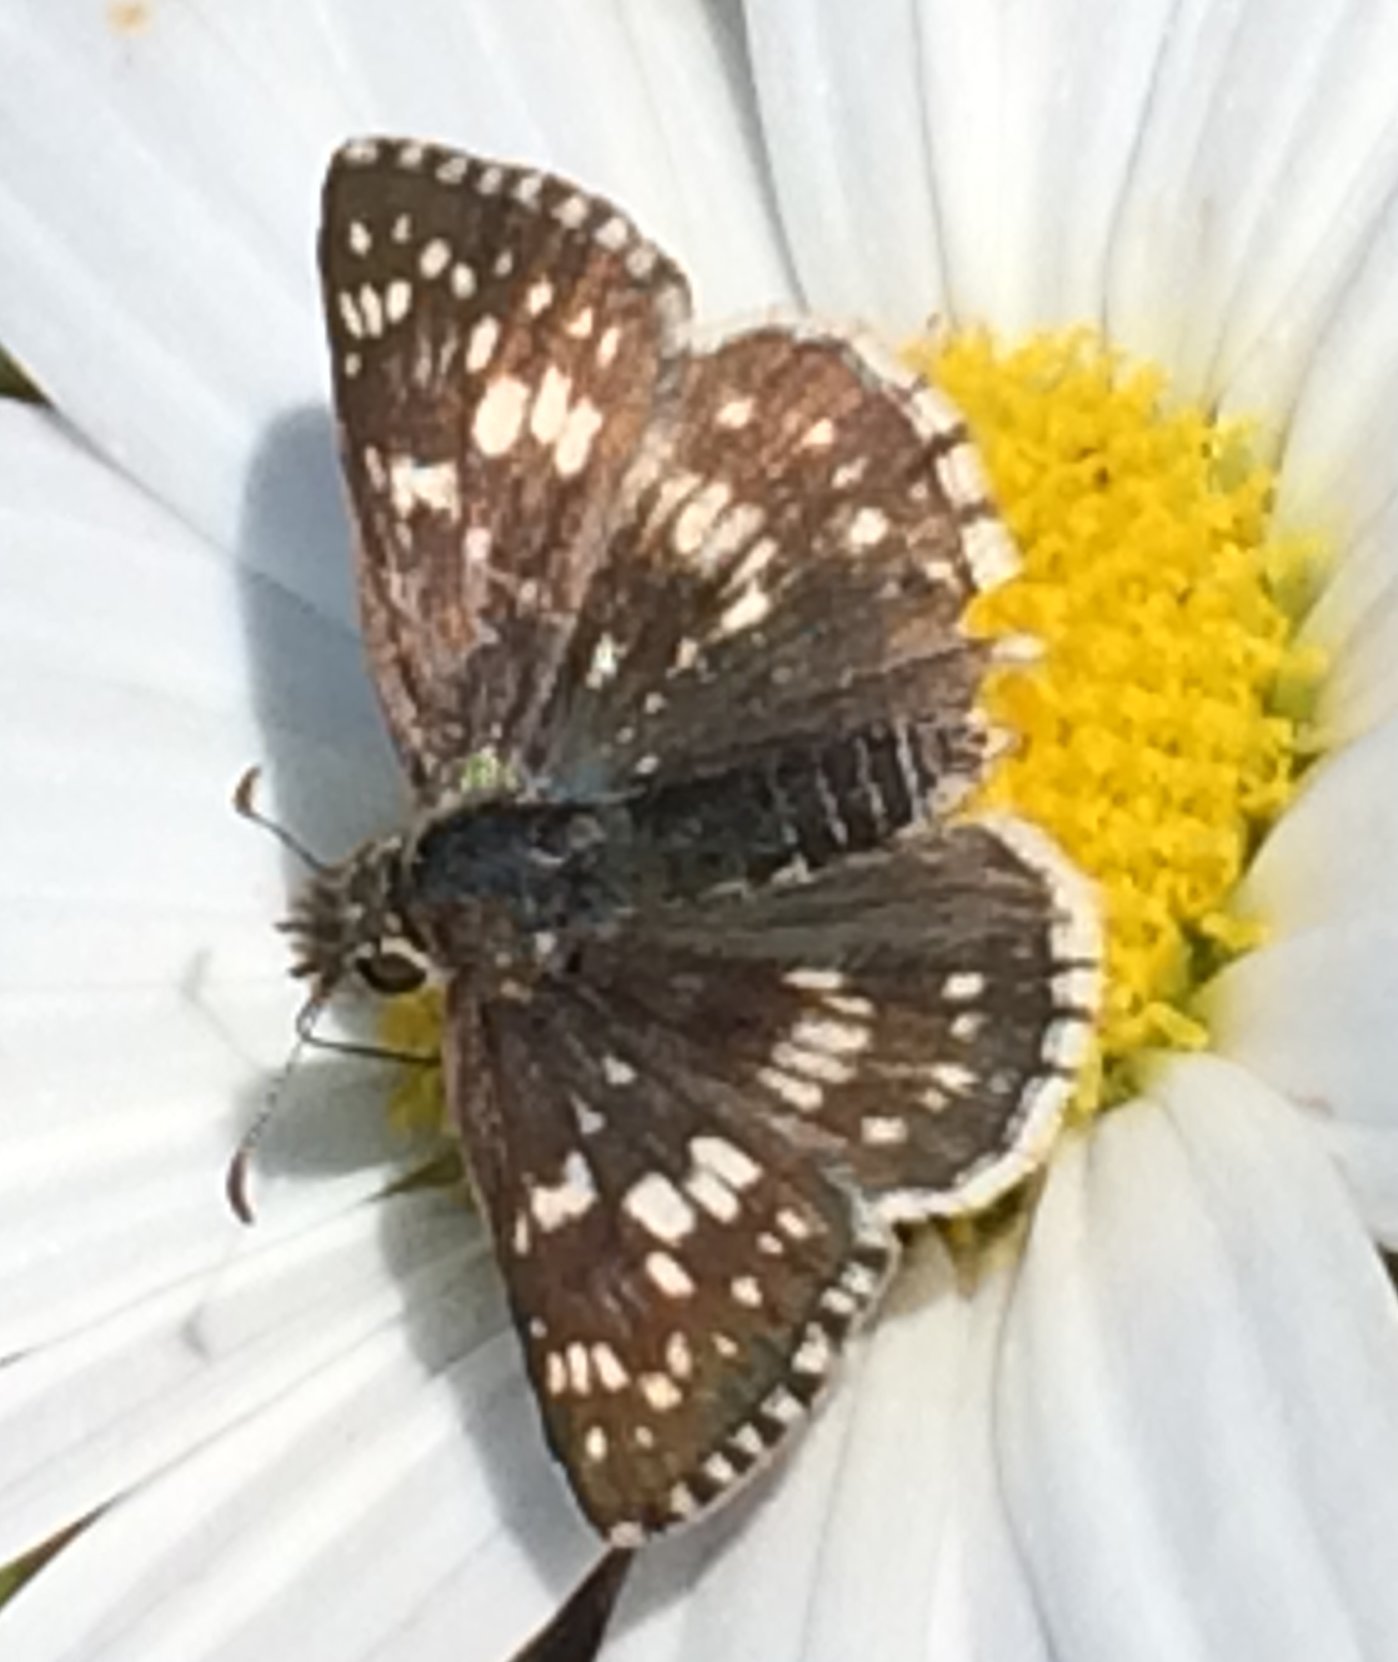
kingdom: Animalia
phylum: Arthropoda
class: Insecta
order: Lepidoptera
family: Hesperiidae
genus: Burnsius
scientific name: Burnsius communis
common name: Common checkered-skipper
